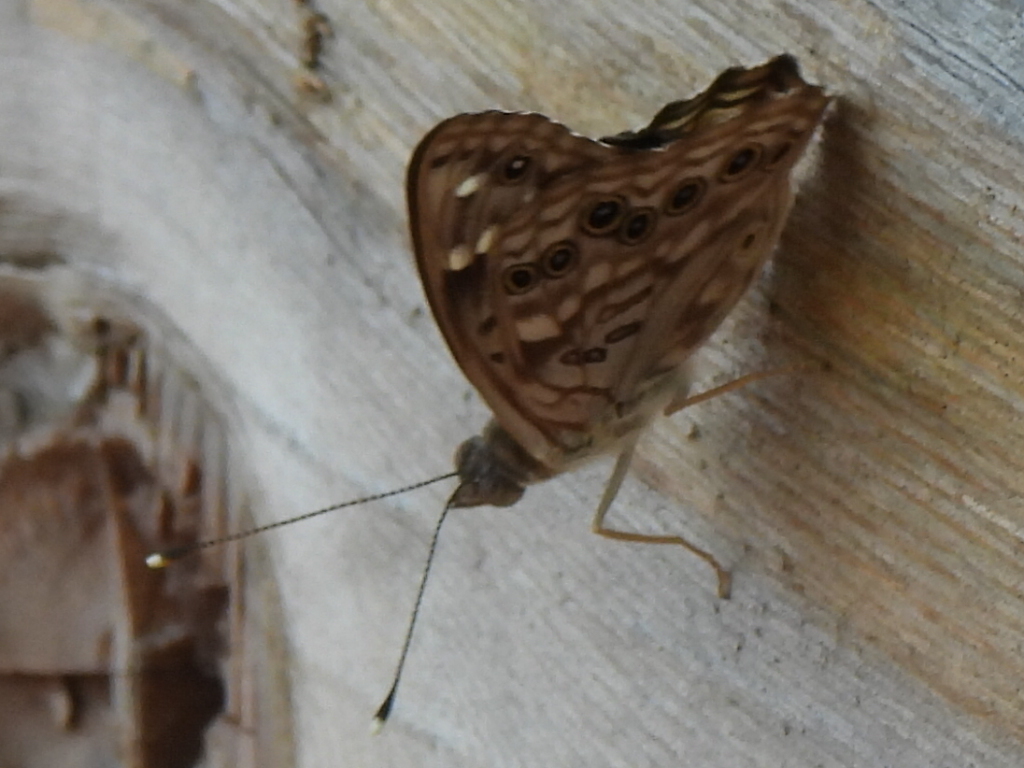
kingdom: Animalia
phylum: Arthropoda
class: Insecta
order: Lepidoptera
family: Nymphalidae
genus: Asterocampa
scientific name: Asterocampa celtis
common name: Hackberry emperor
